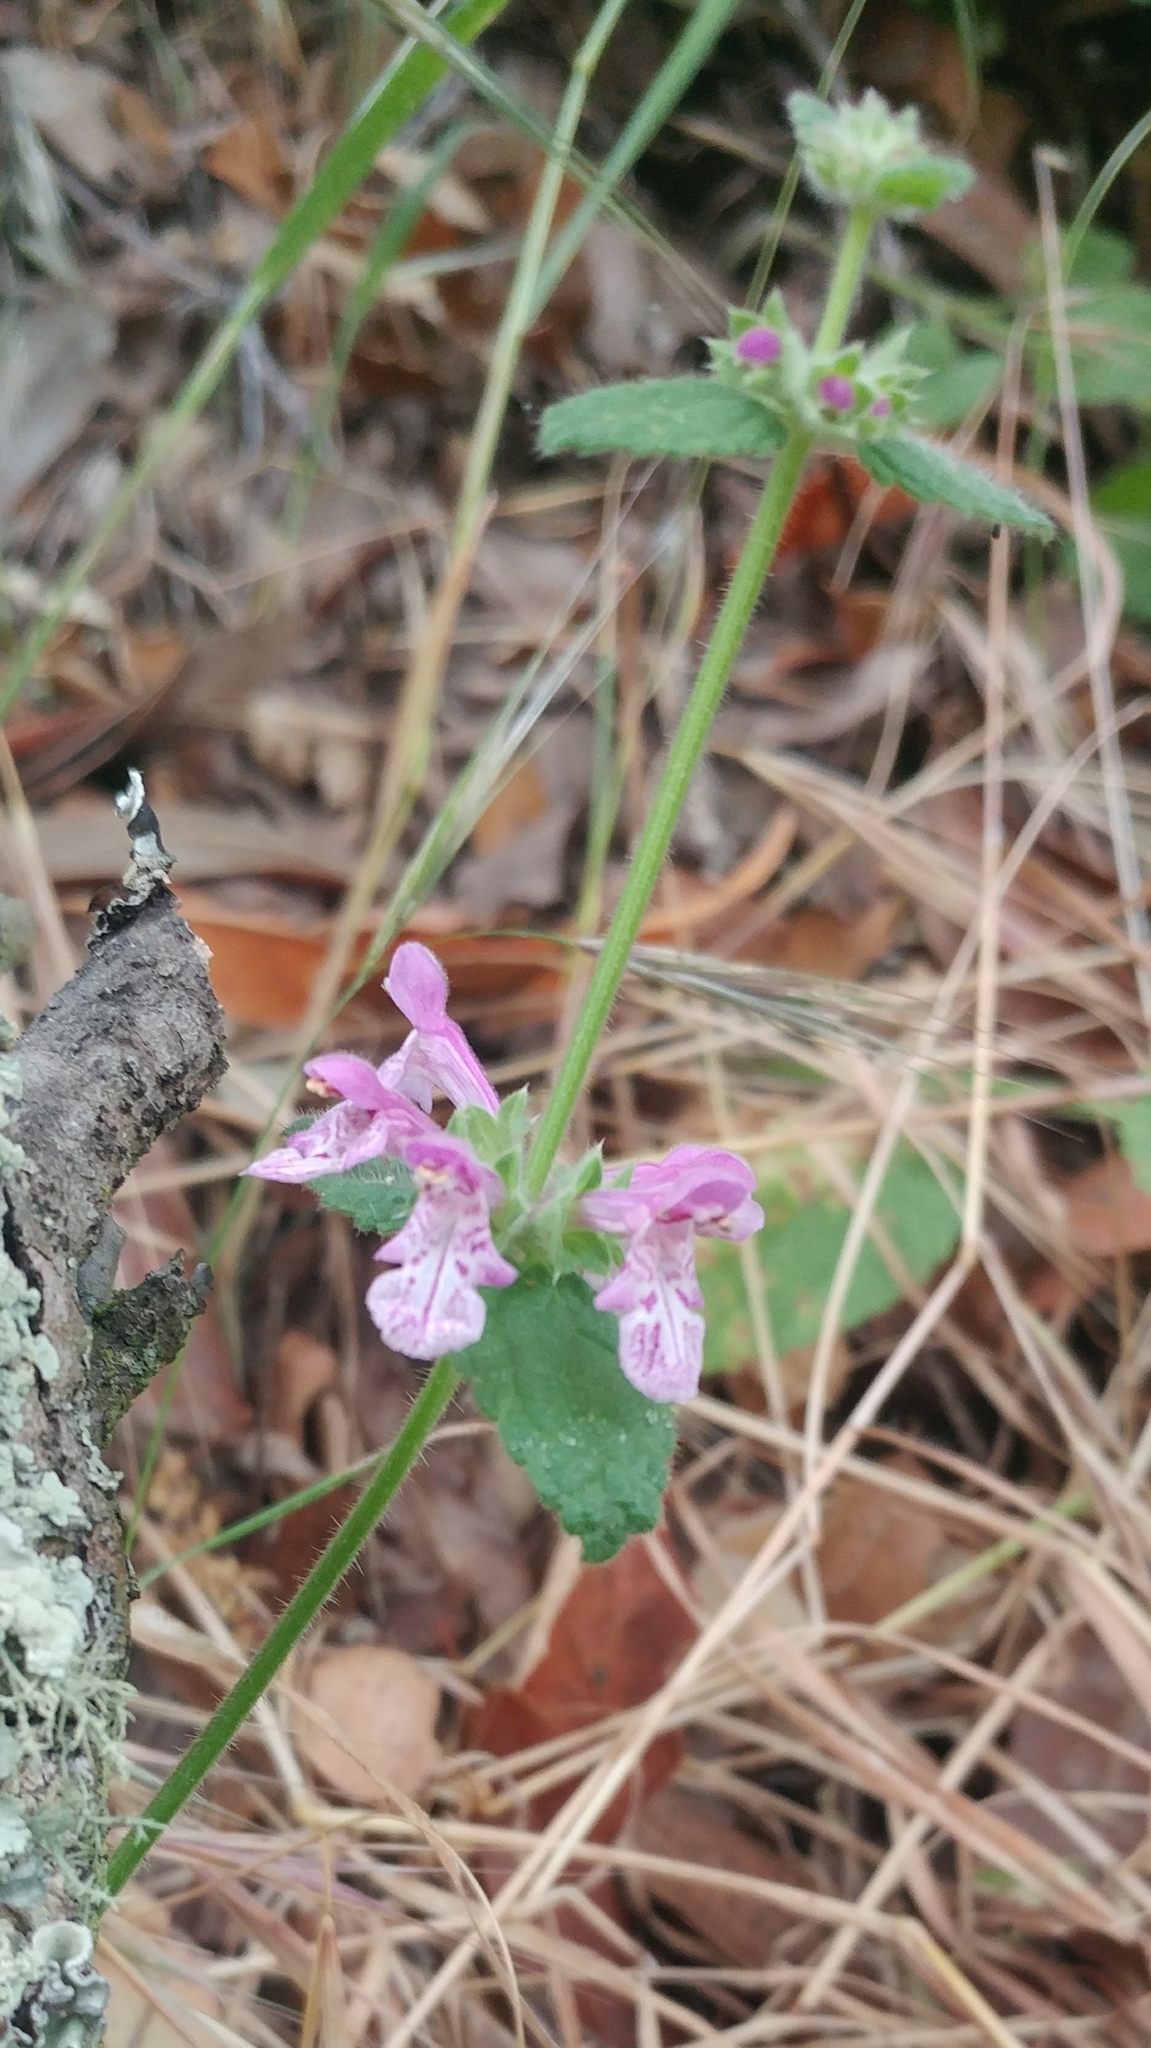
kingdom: Plantae
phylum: Tracheophyta
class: Magnoliopsida
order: Lamiales
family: Lamiaceae
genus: Stachys
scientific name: Stachys bullata
